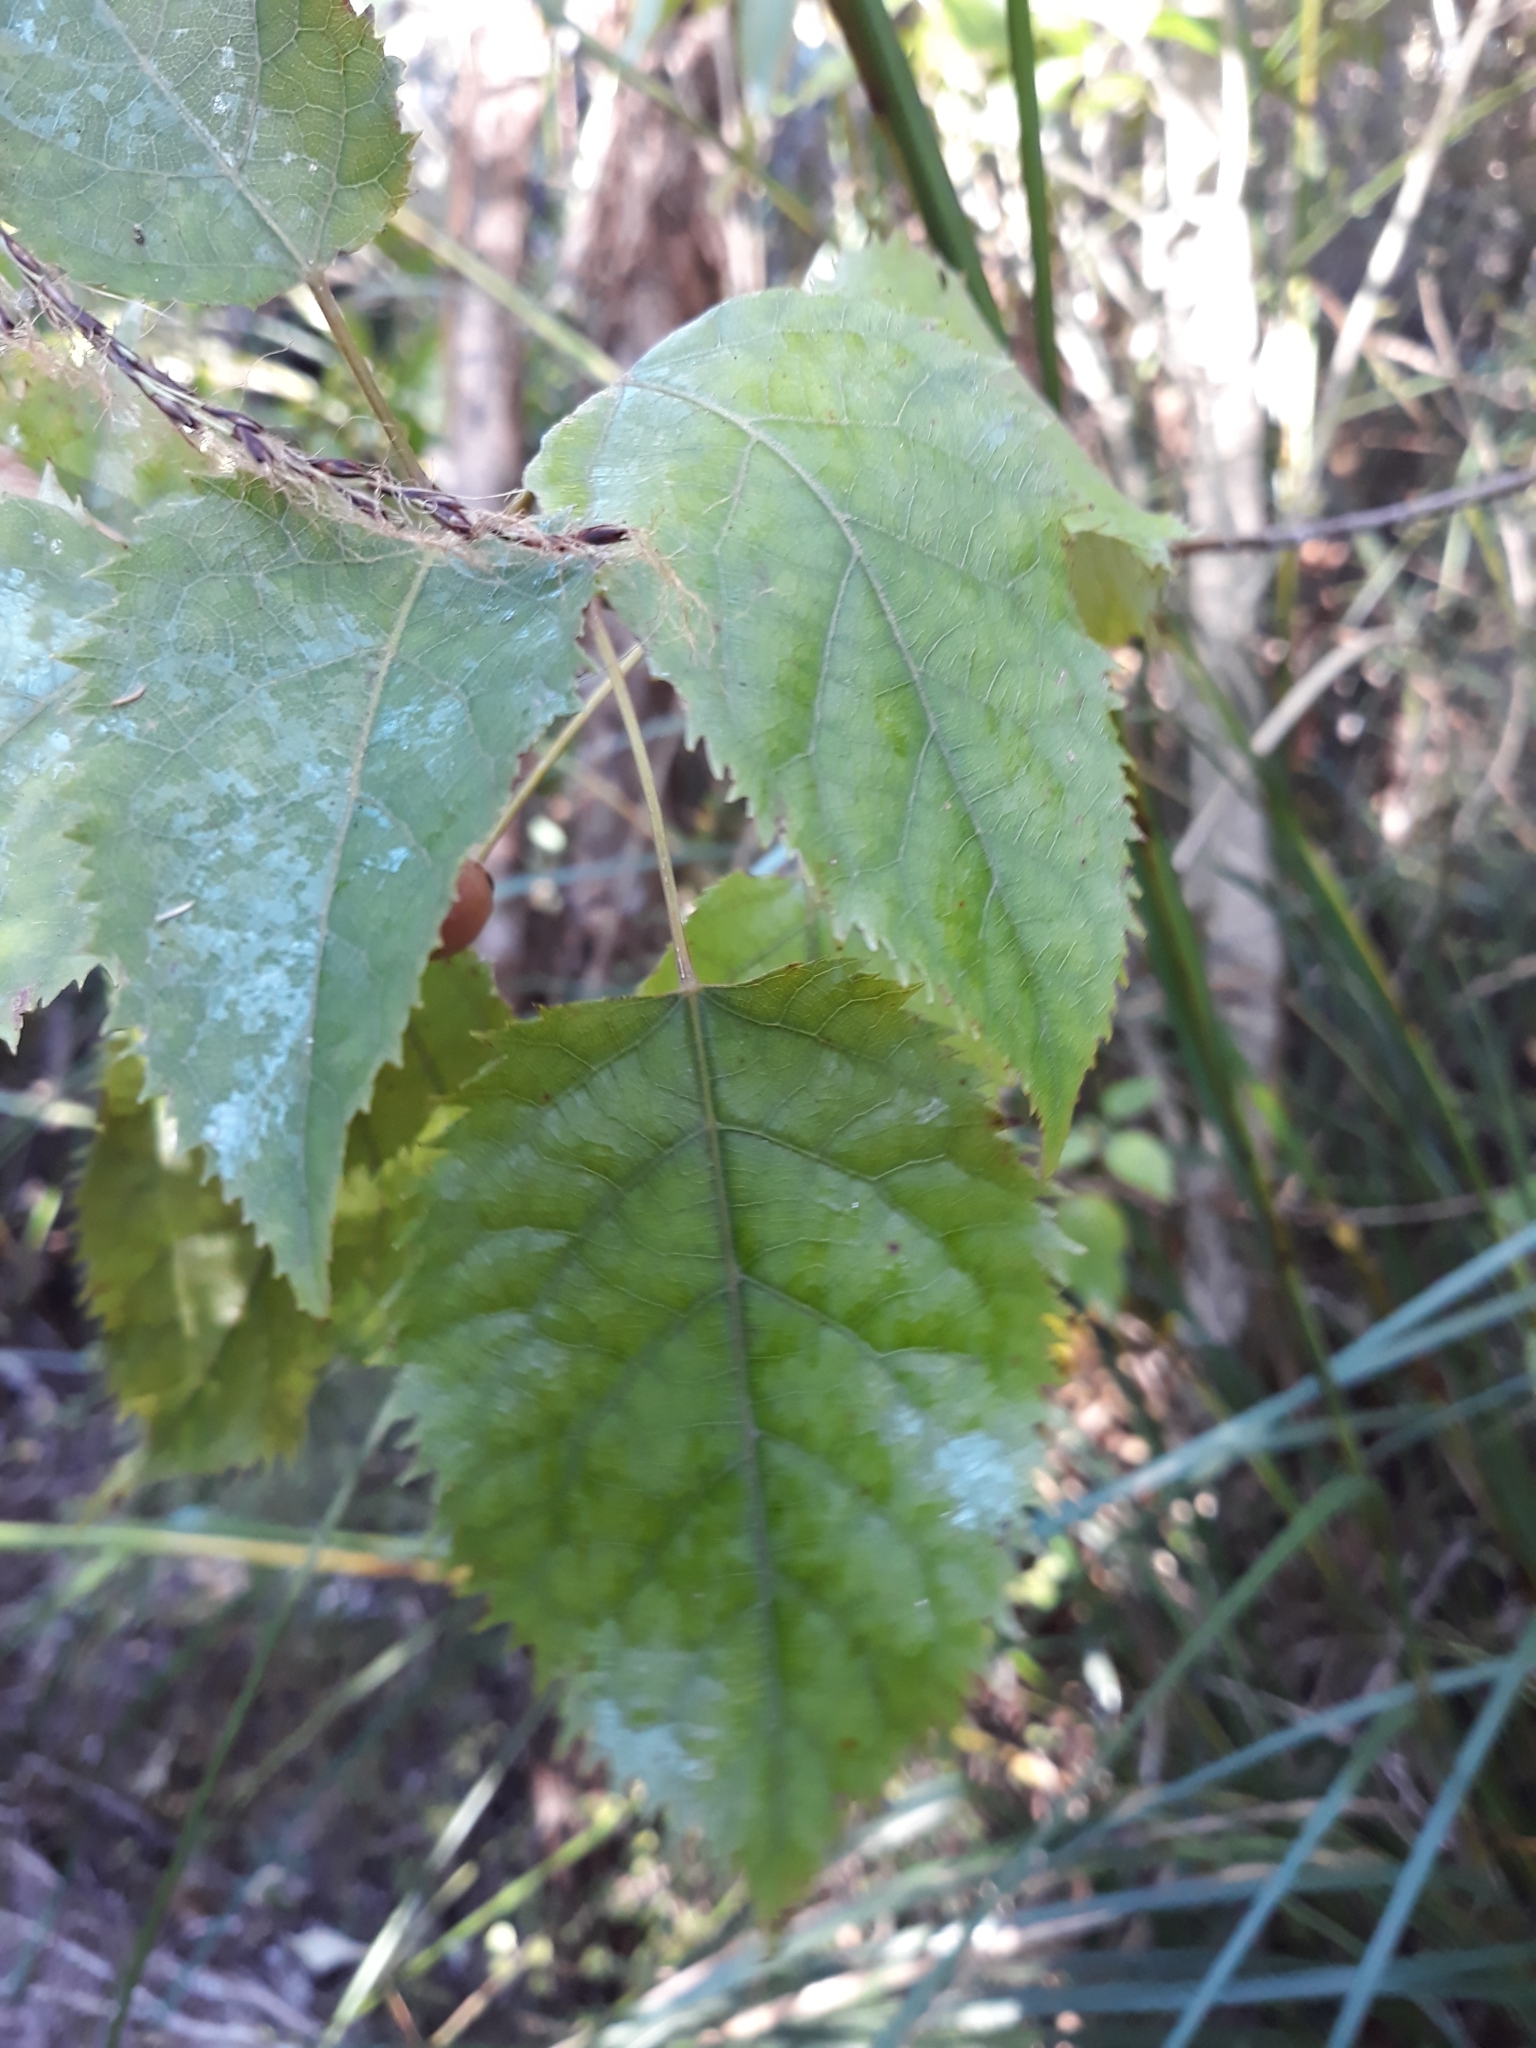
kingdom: Plantae
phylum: Tracheophyta
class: Magnoliopsida
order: Oxalidales
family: Elaeocarpaceae
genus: Aristotelia
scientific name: Aristotelia serrata
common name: New zealand wineberry
